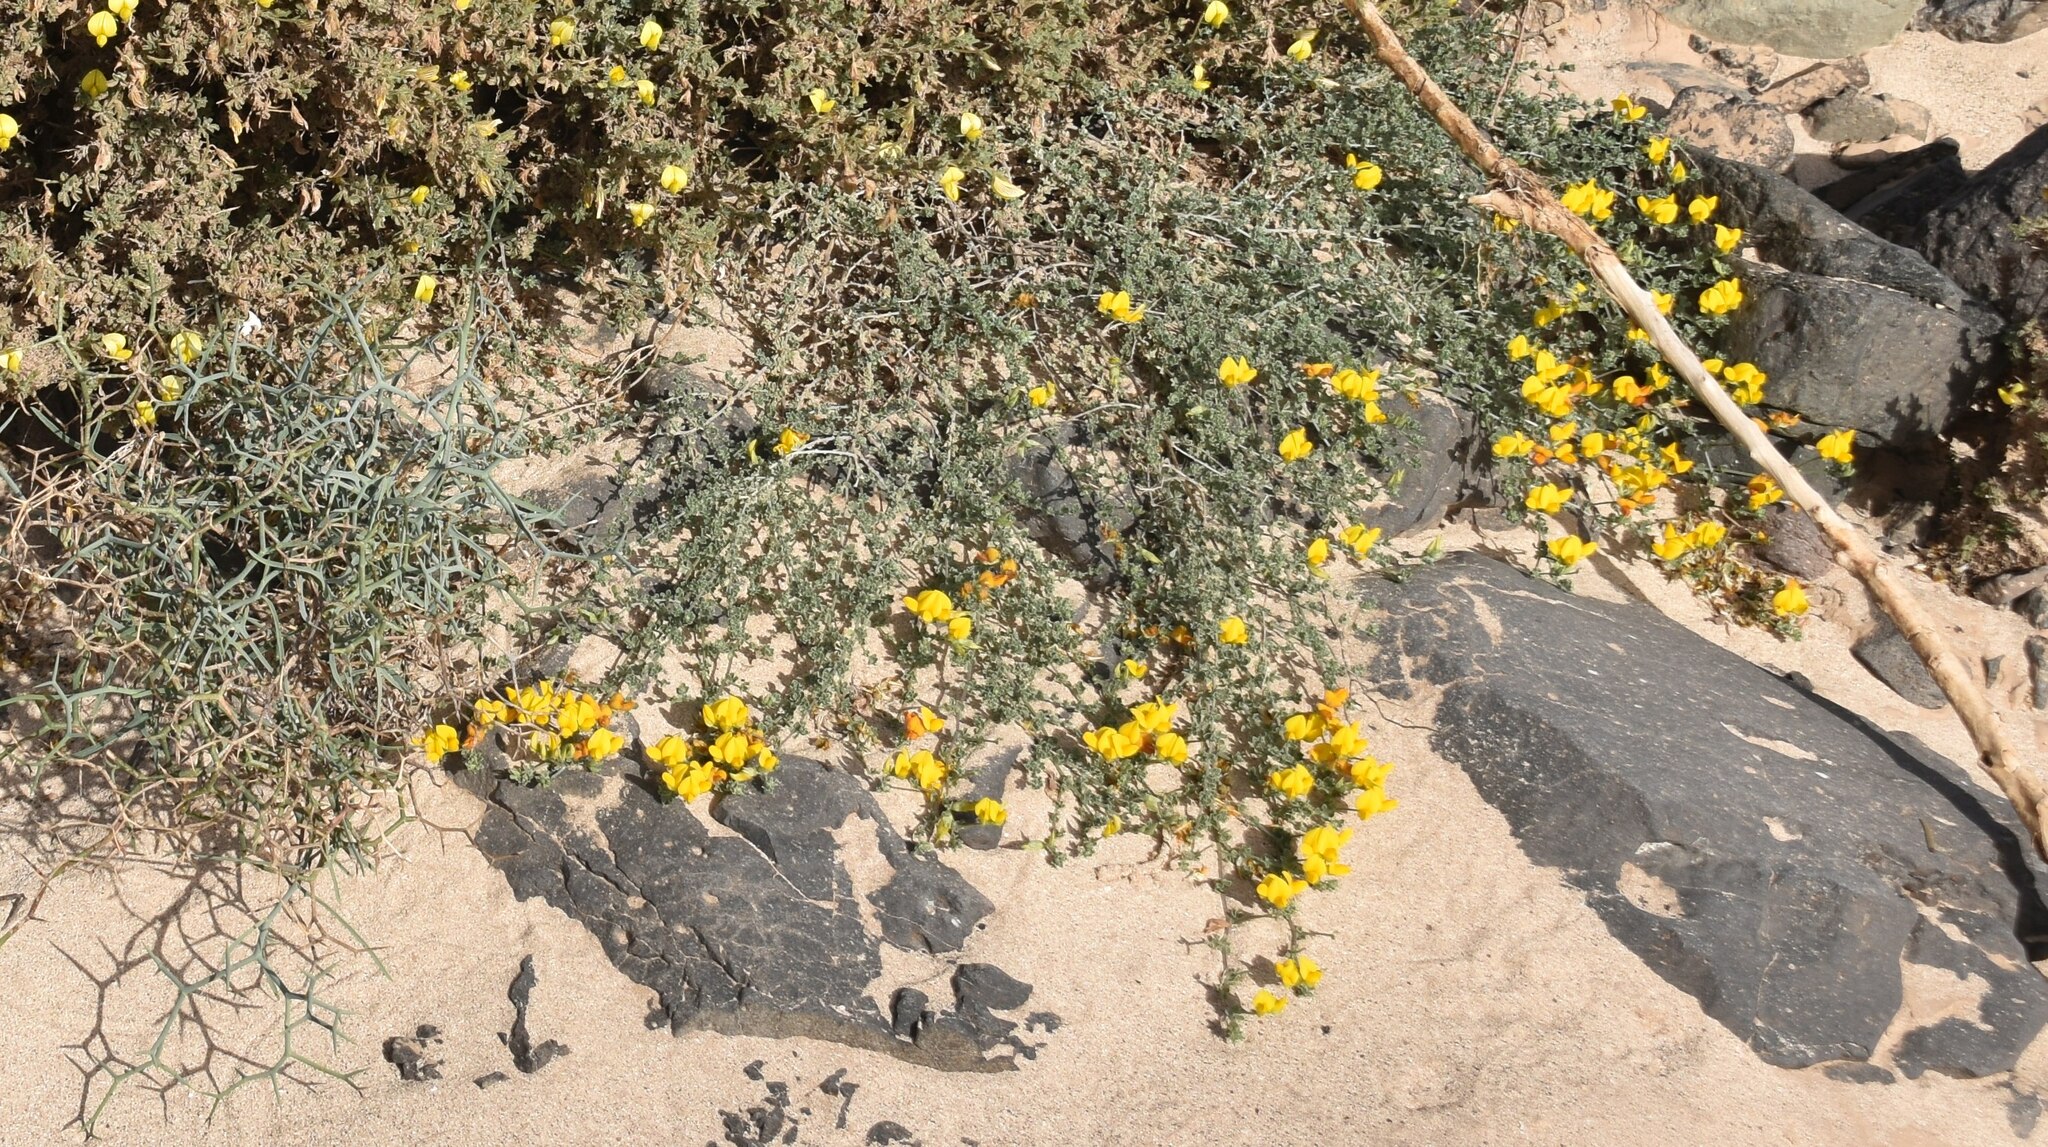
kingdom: Plantae
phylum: Tracheophyta
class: Magnoliopsida
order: Fabales
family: Fabaceae
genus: Lotus
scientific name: Lotus lancerottensis
